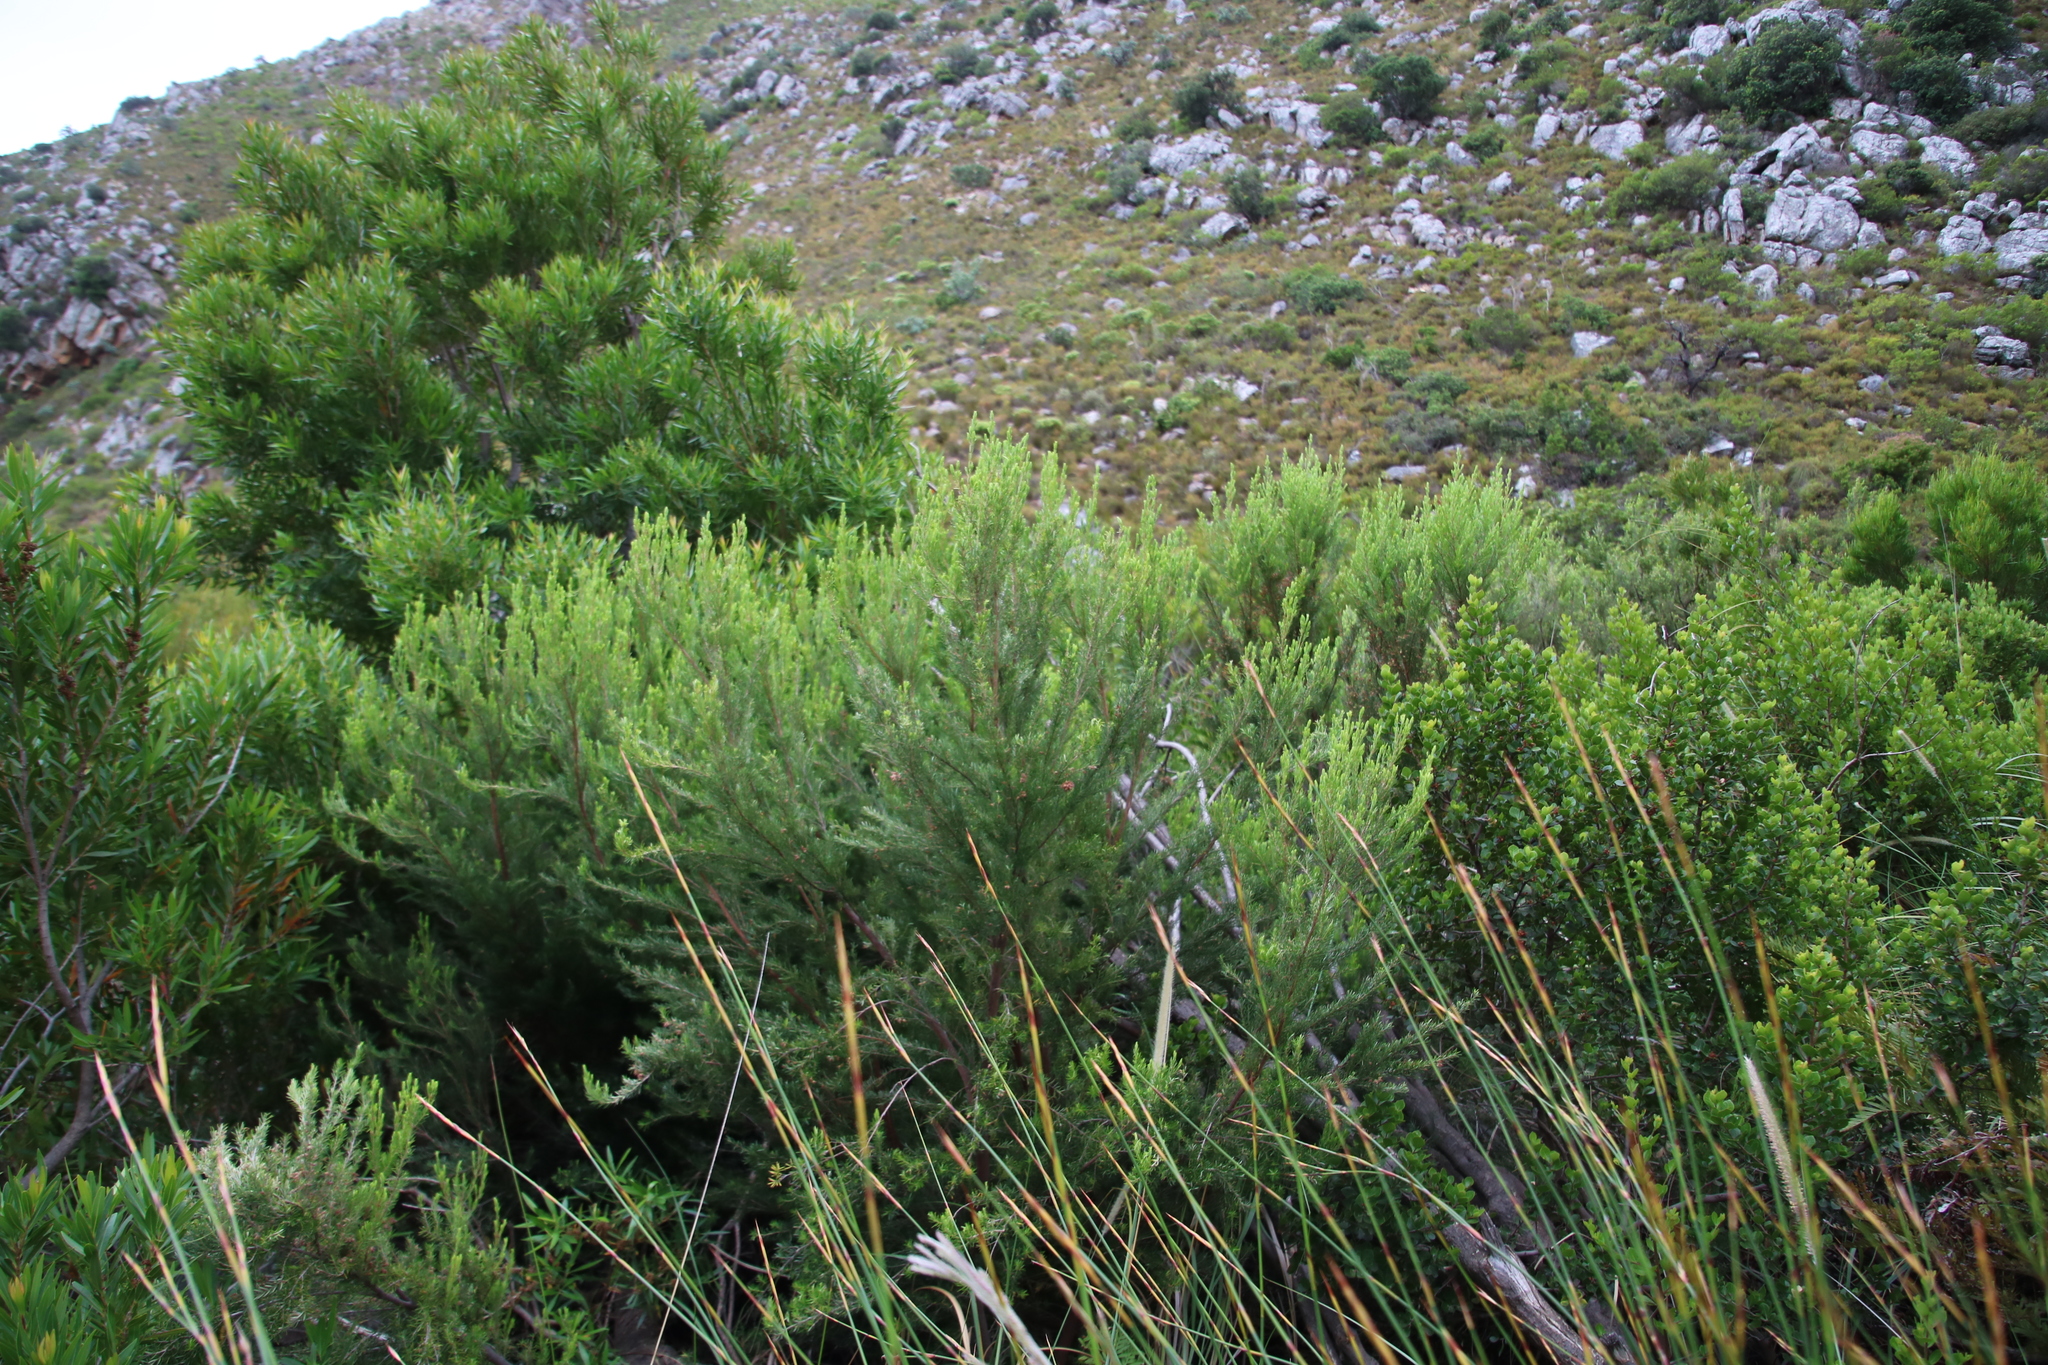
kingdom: Plantae
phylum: Tracheophyta
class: Magnoliopsida
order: Ericales
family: Ericaceae
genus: Erica
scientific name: Erica caffra
